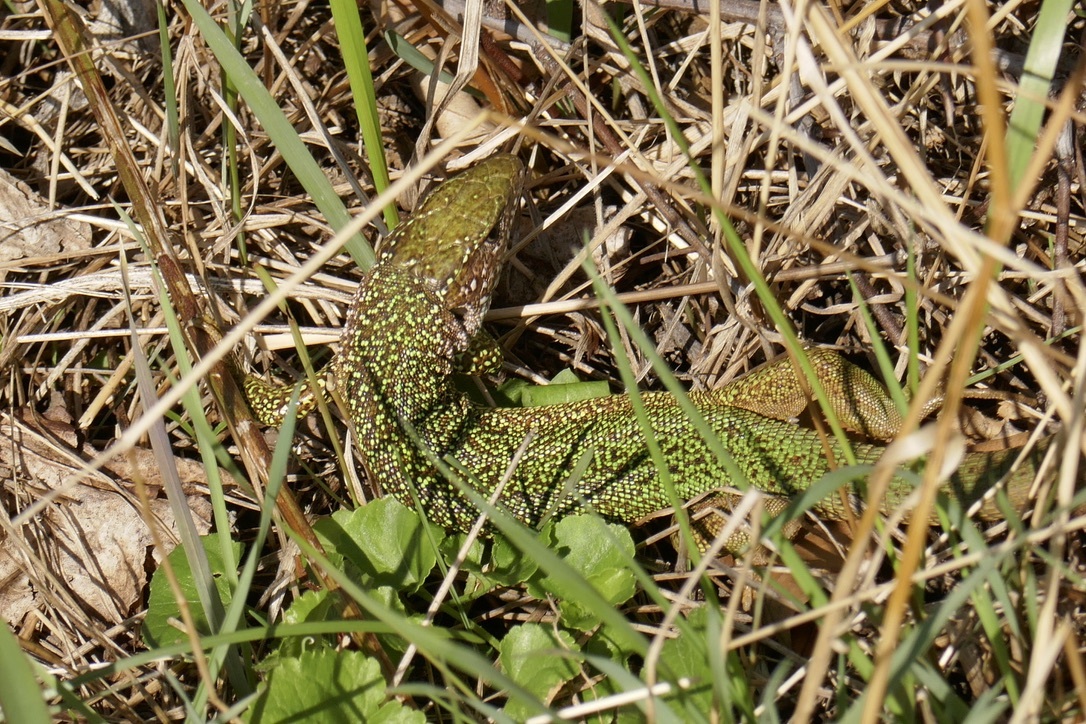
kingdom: Animalia
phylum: Chordata
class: Squamata
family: Lacertidae
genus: Lacerta
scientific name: Lacerta viridis
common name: European green lizard
